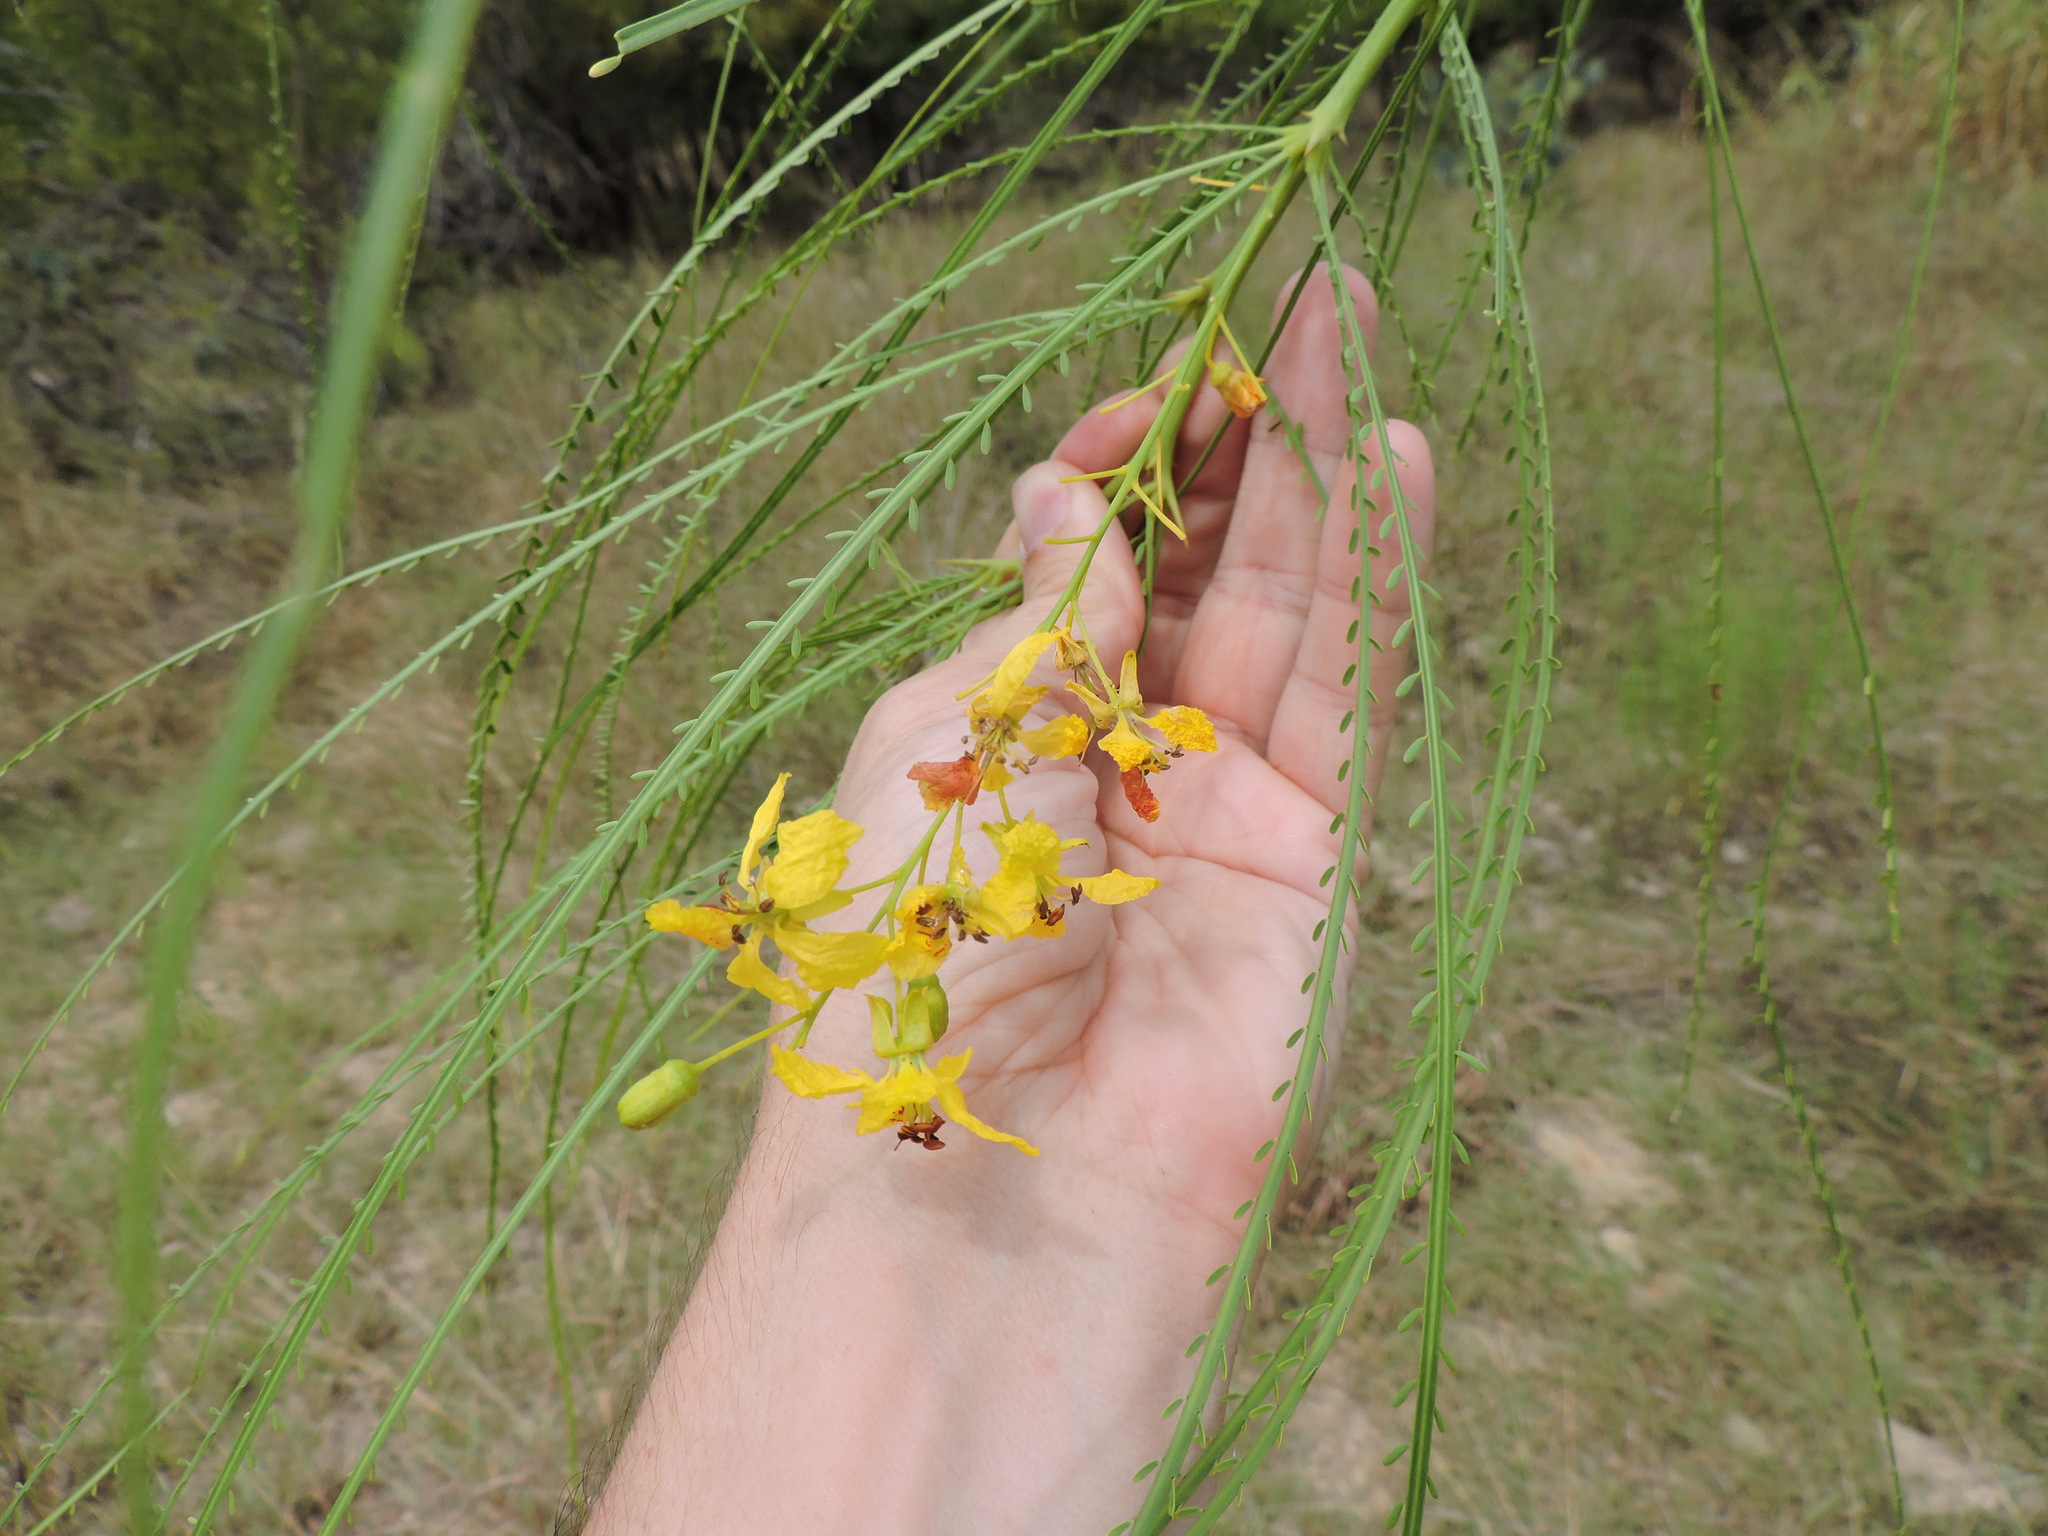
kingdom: Plantae
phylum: Tracheophyta
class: Magnoliopsida
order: Fabales
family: Fabaceae
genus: Parkinsonia
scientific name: Parkinsonia aculeata
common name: Jerusalem thorn
